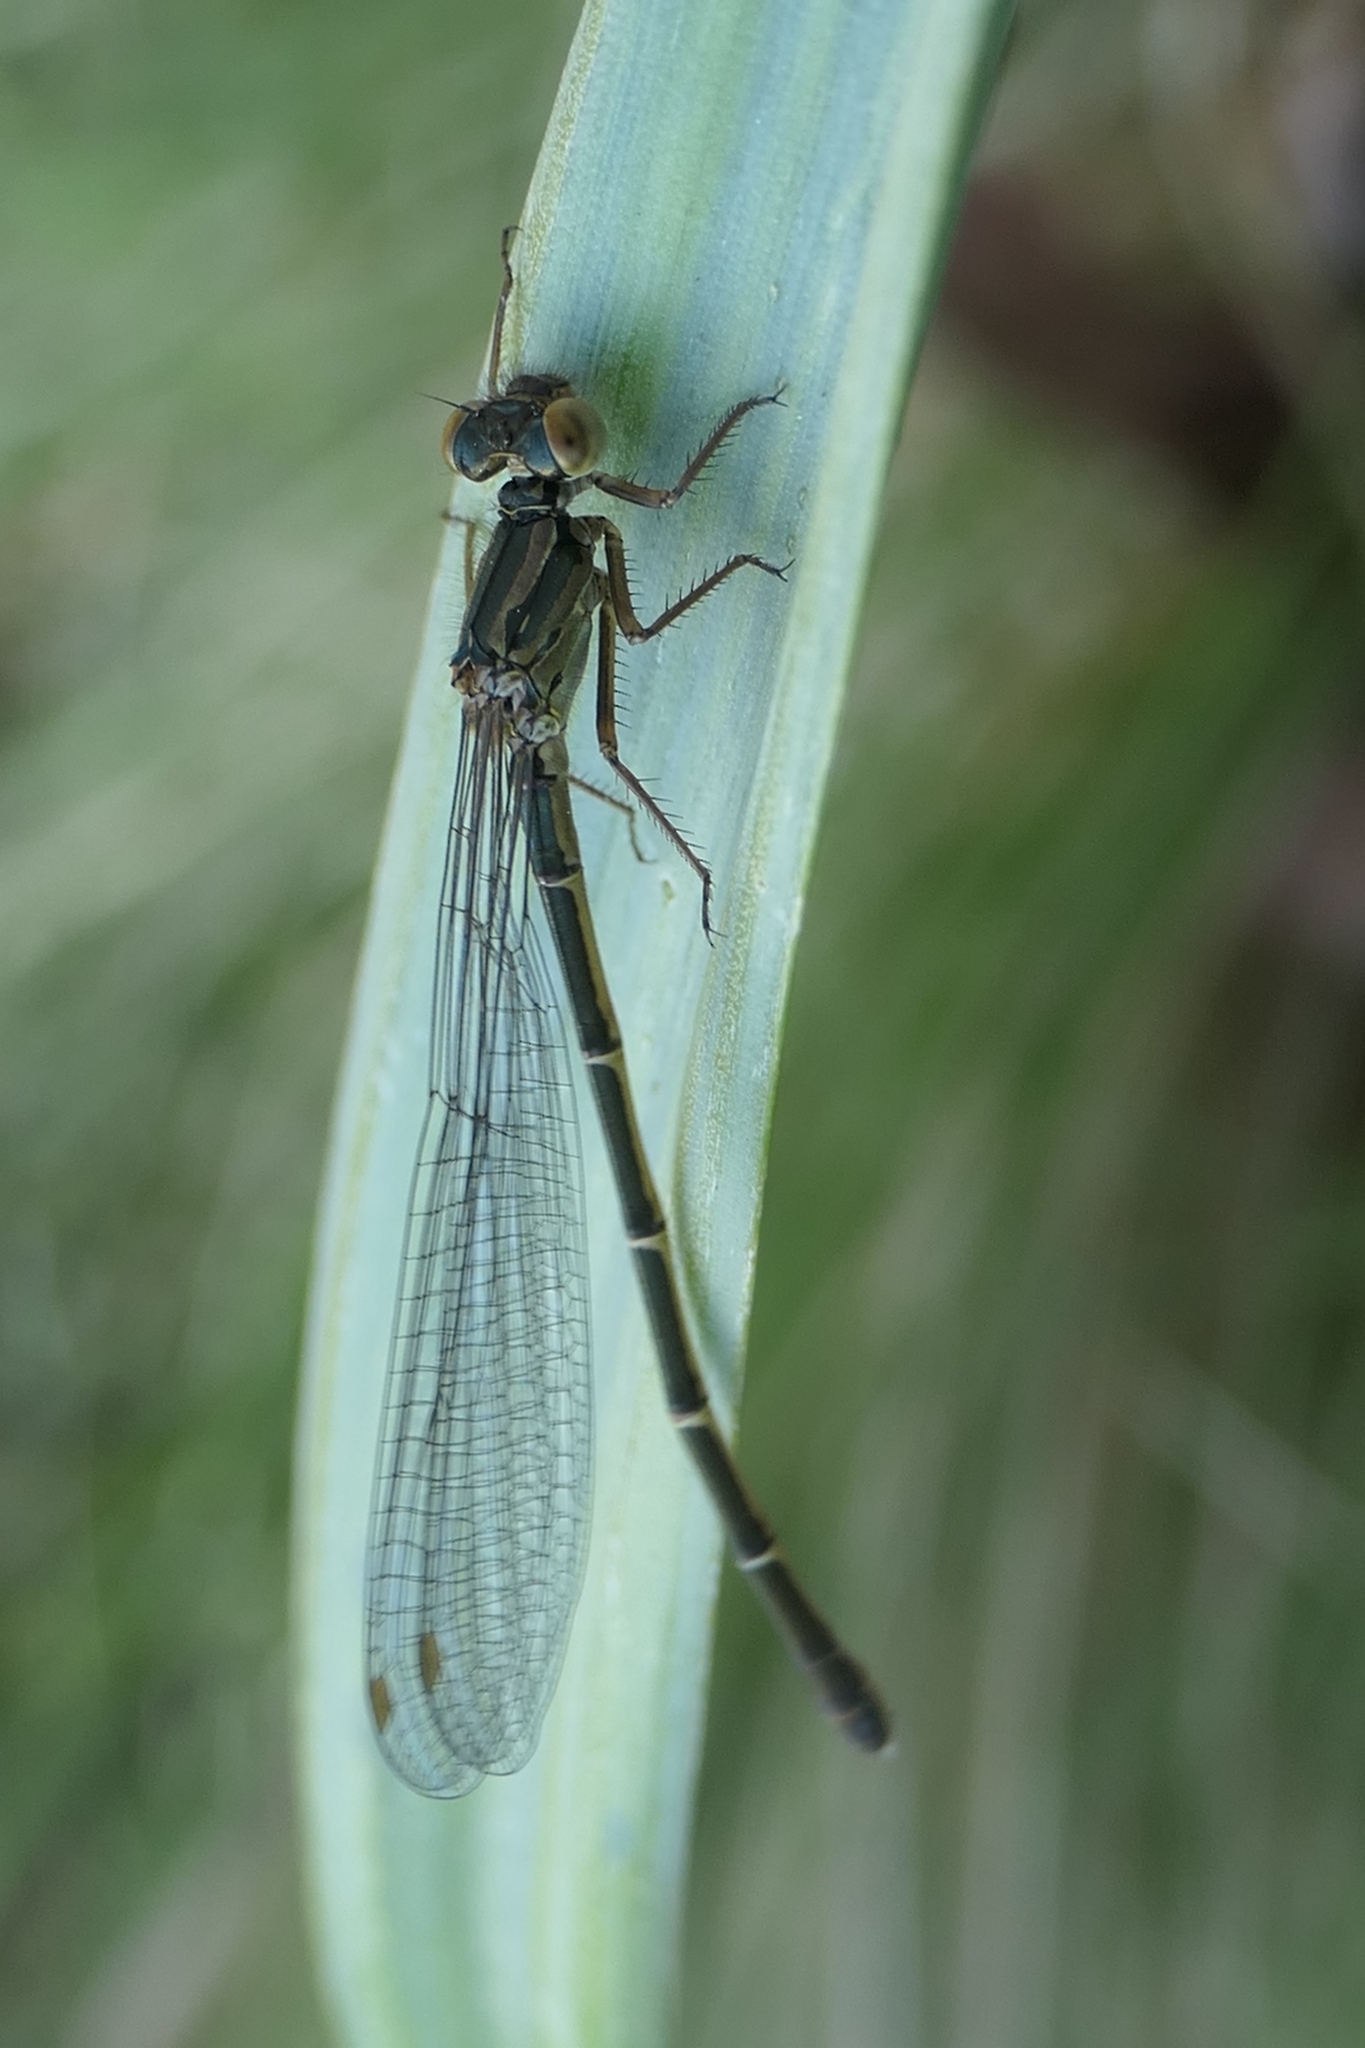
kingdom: Animalia
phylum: Arthropoda
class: Insecta
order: Odonata
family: Coenagrionidae
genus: Xanthocnemis
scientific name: Xanthocnemis zealandica
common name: Common redcoat damselfly
